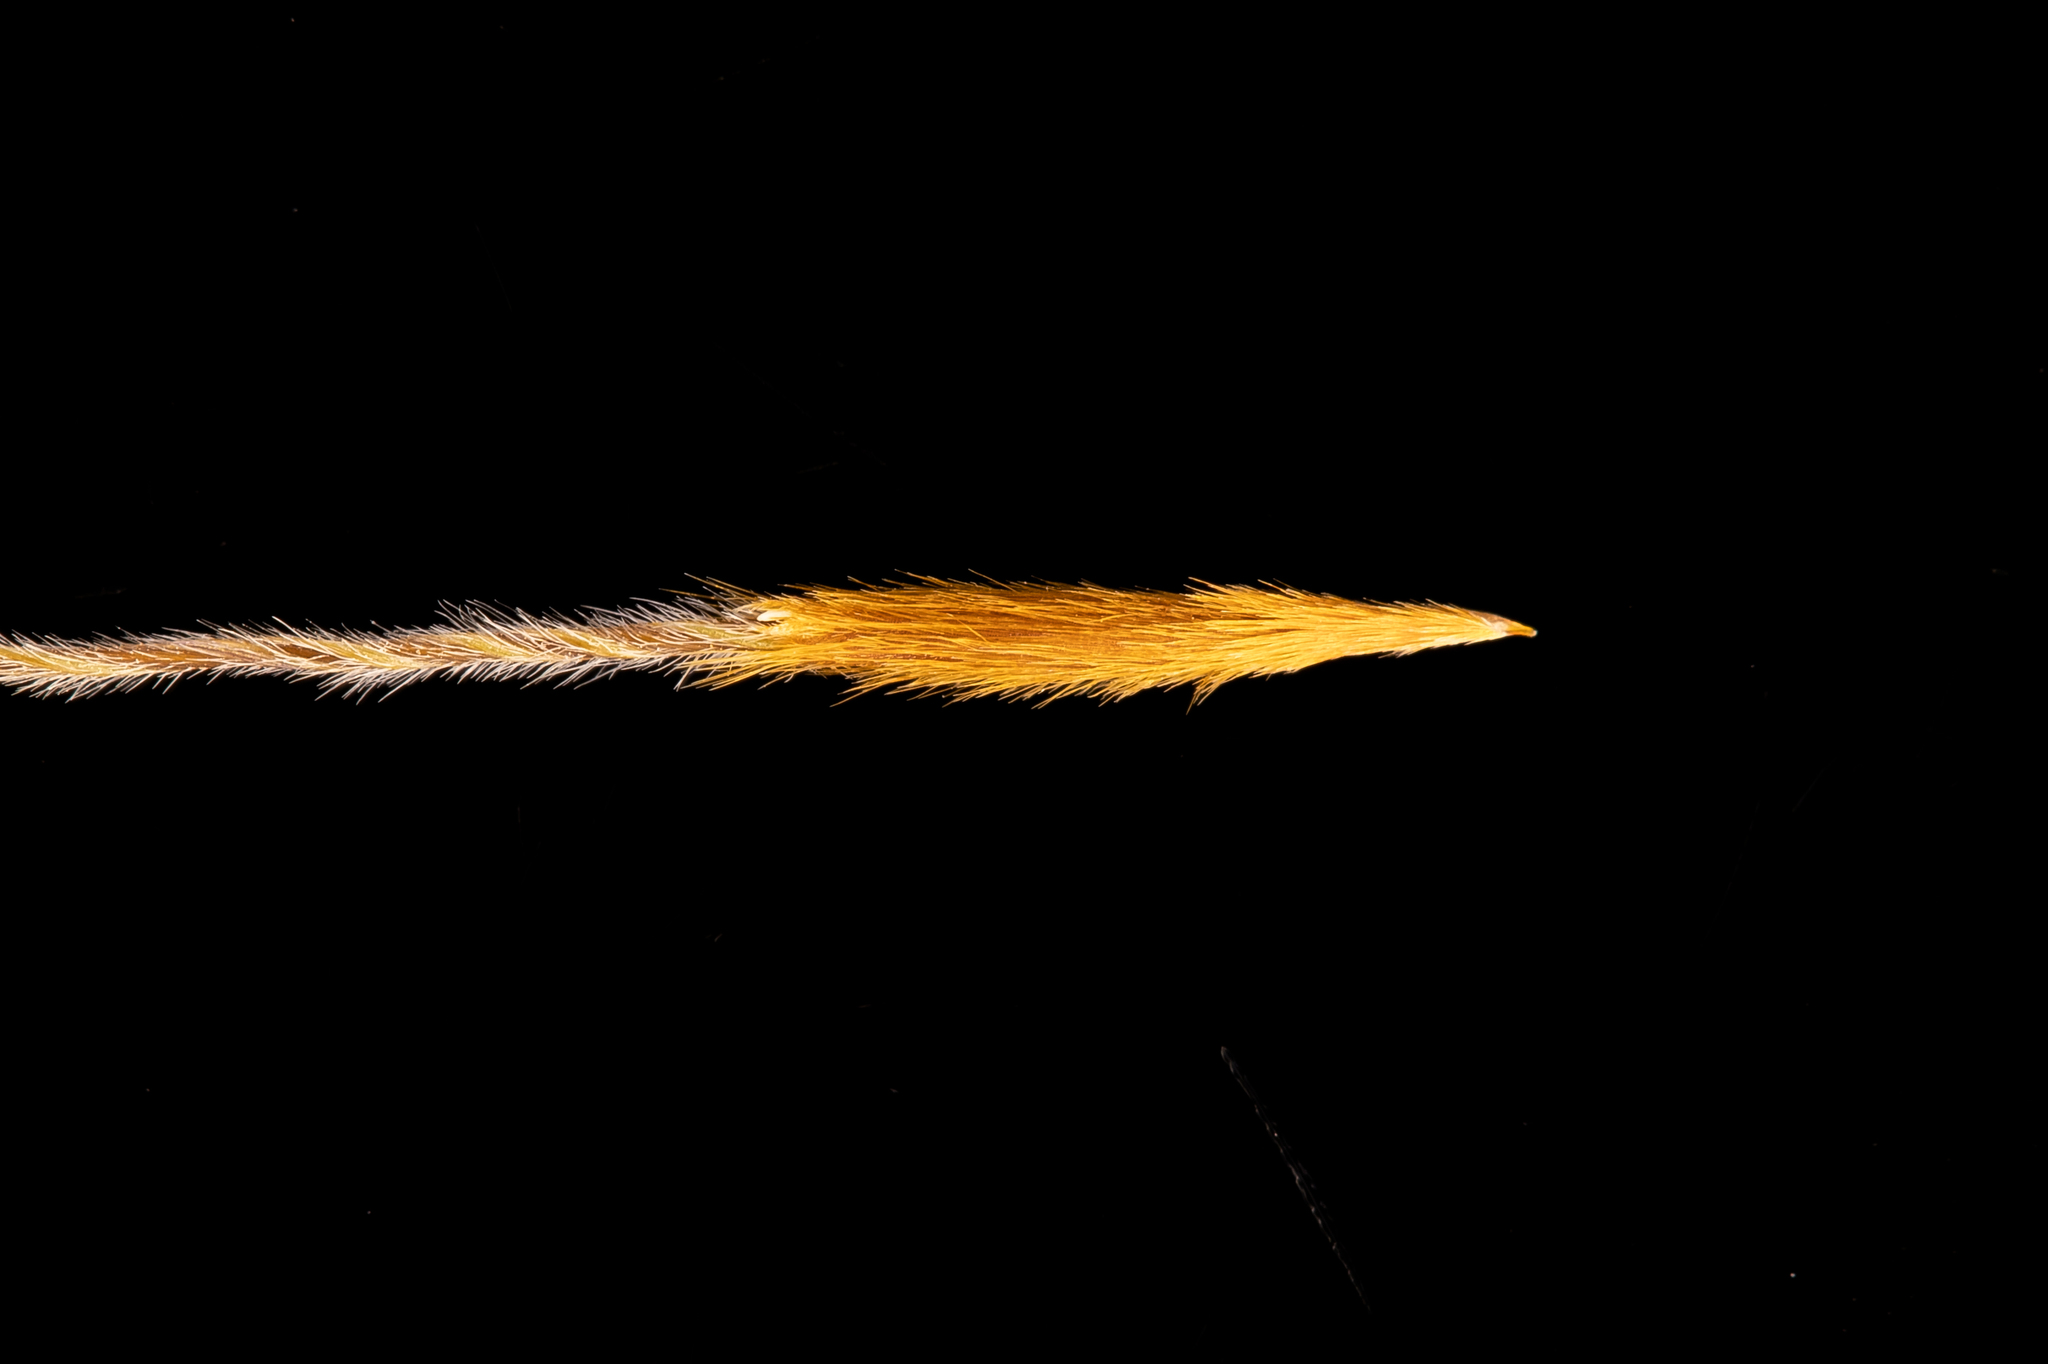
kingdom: Plantae
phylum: Tracheophyta
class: Liliopsida
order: Poales
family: Poaceae
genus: Austrostipa
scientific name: Austrostipa flavescens
